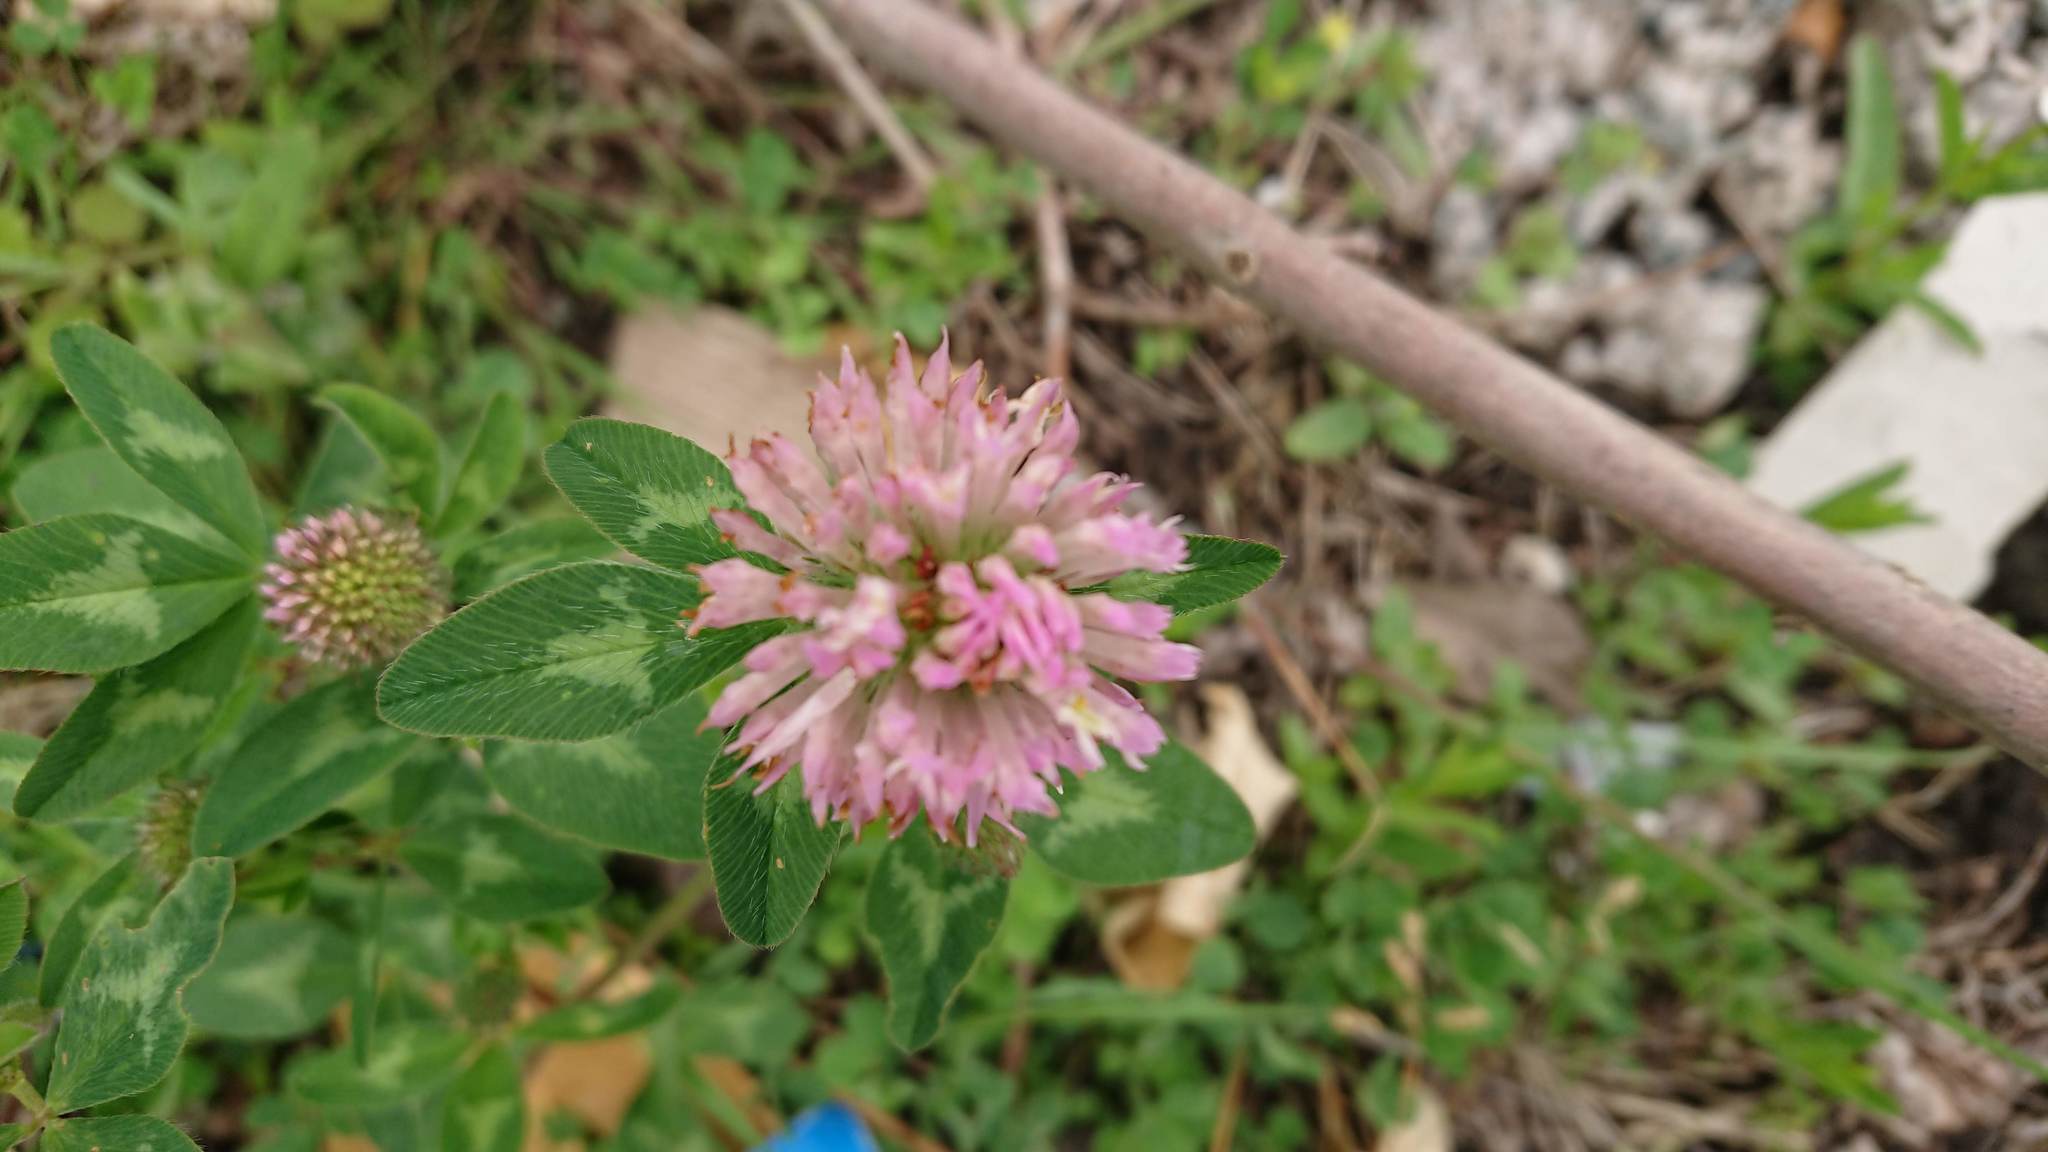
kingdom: Plantae
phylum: Tracheophyta
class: Magnoliopsida
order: Fabales
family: Fabaceae
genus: Trifolium
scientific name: Trifolium pratense
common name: Red clover
